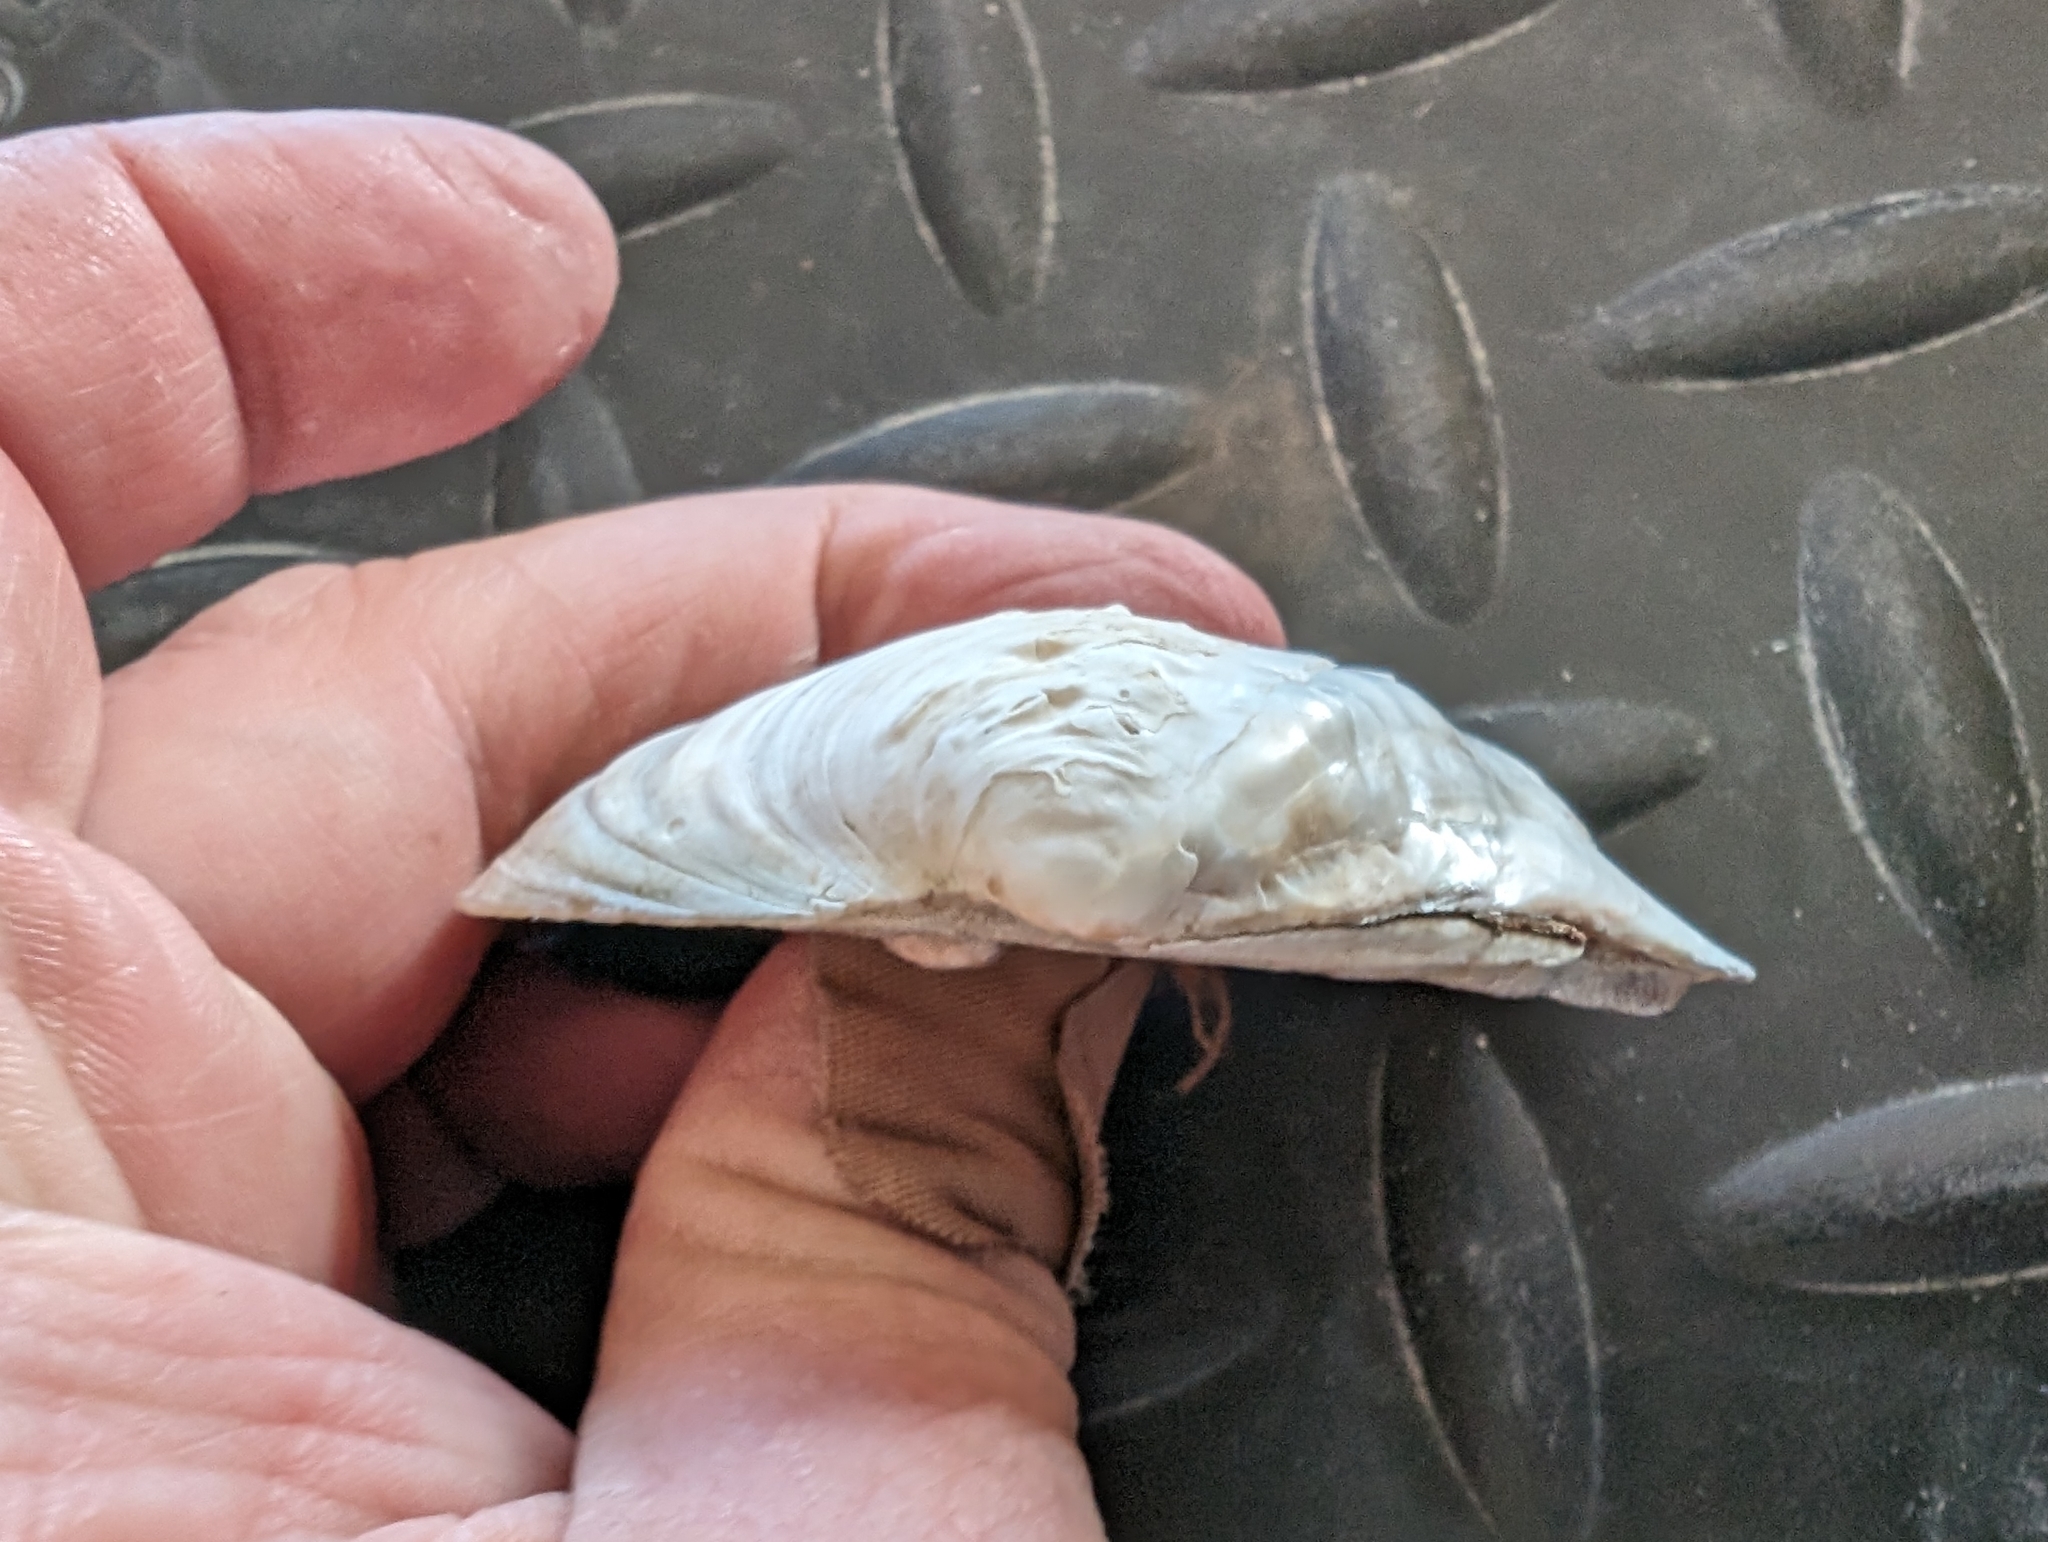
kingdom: Animalia
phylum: Mollusca
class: Bivalvia
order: Unionida
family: Unionidae
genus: Quadrula
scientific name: Quadrula quadrula
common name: Mapleleaf
